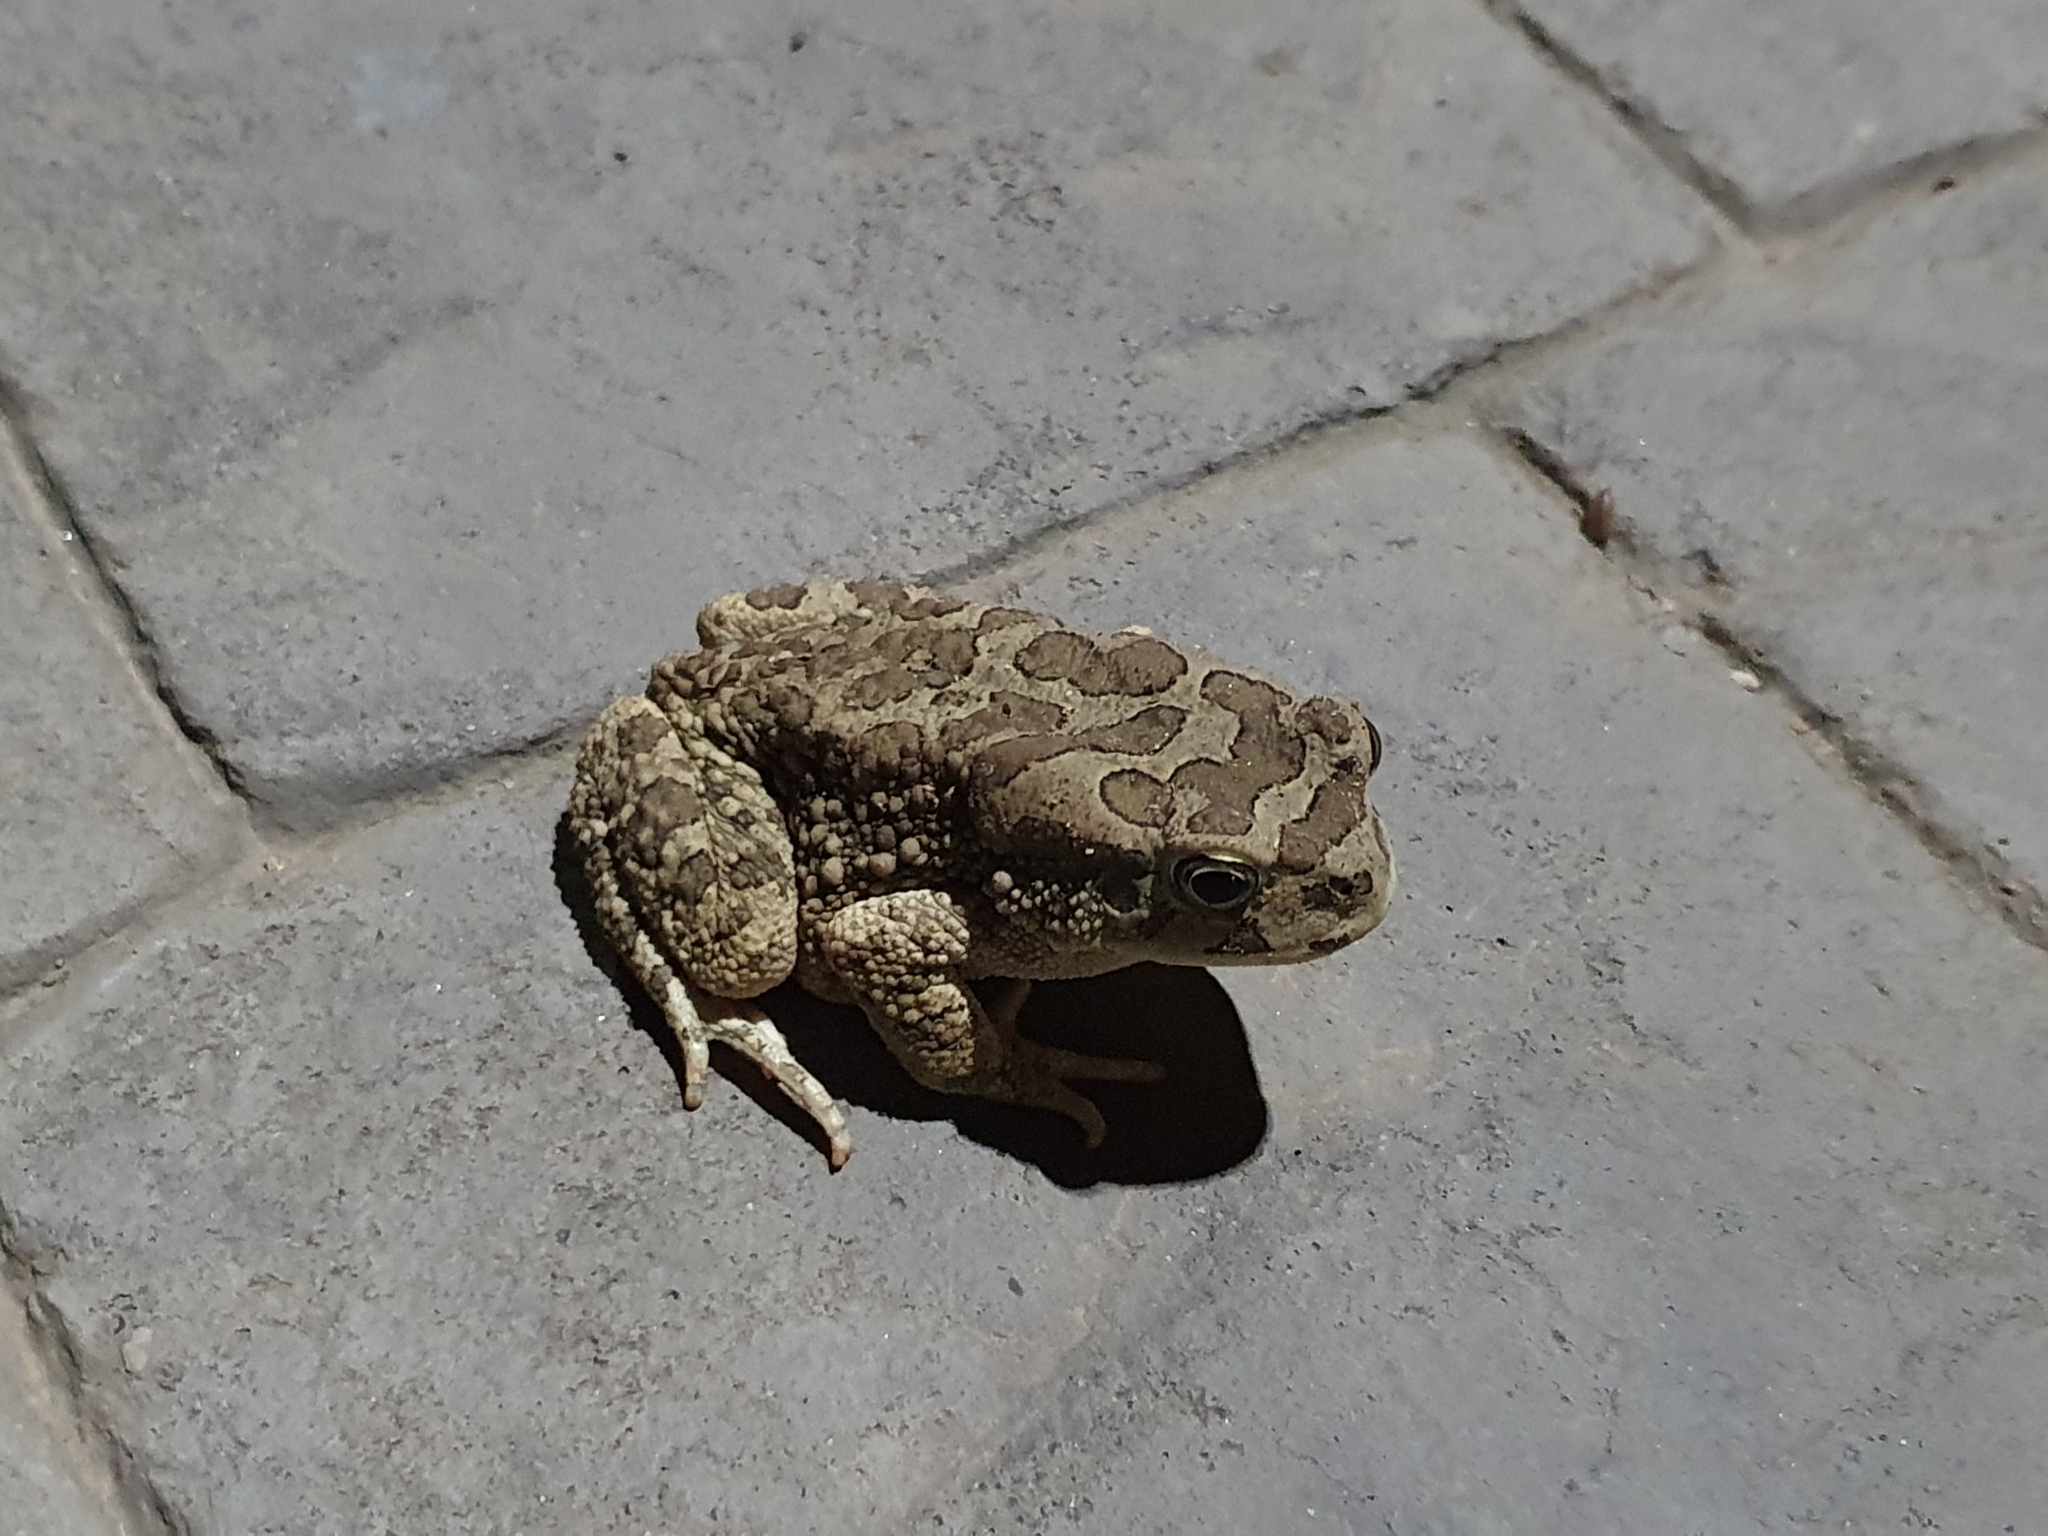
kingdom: Animalia
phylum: Chordata
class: Amphibia
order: Anura
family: Bufonidae
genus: Sclerophrys
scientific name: Sclerophrys mauritanica
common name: Berber toad
